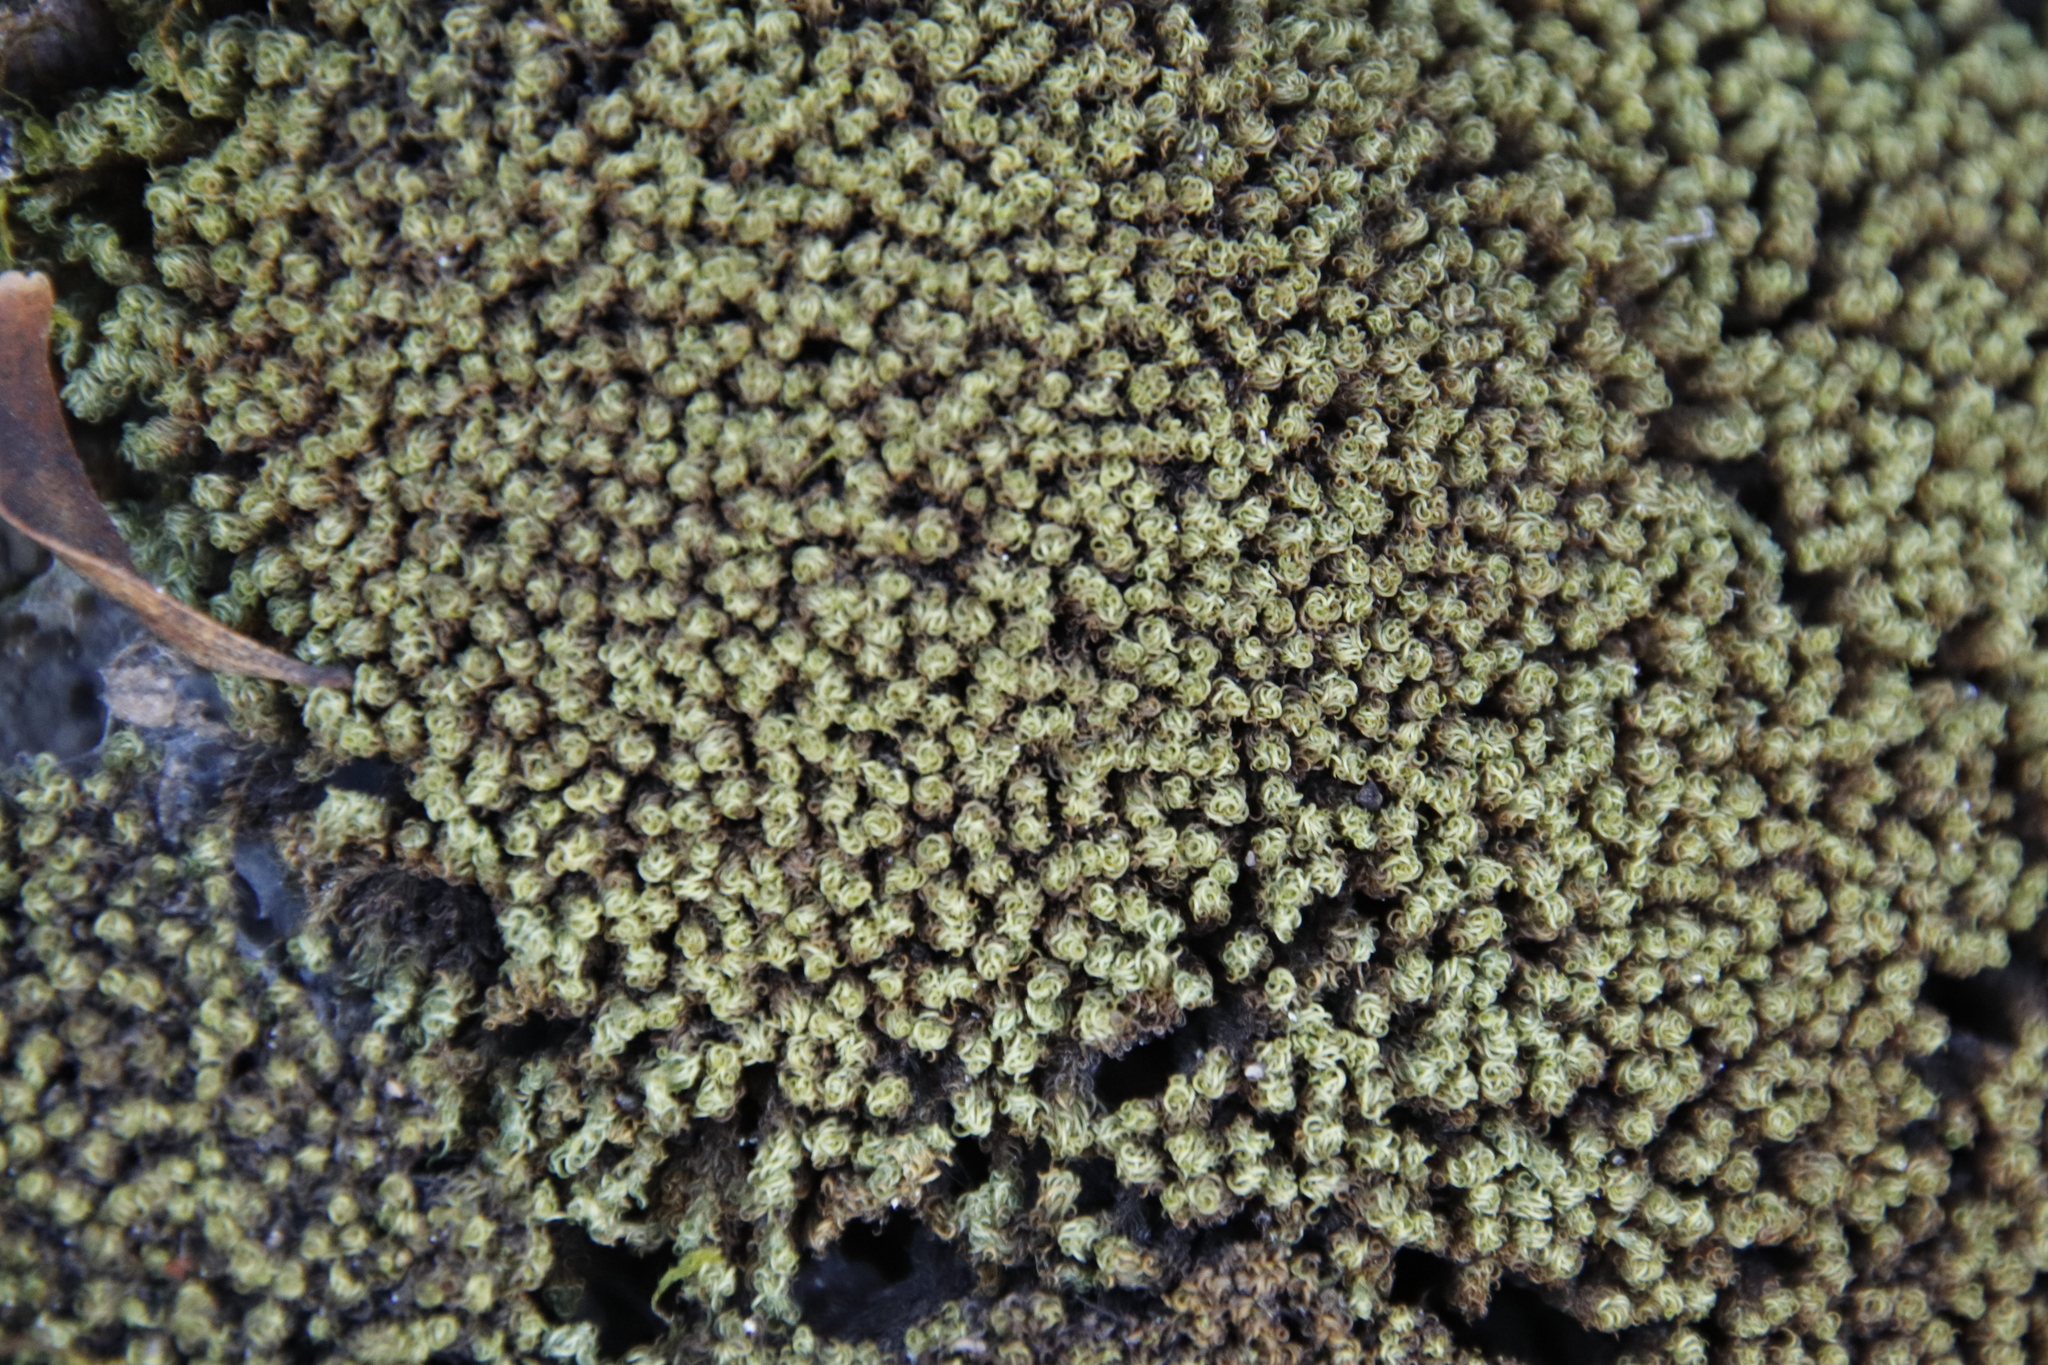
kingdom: Plantae
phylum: Bryophyta
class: Bryopsida
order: Pottiales
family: Pottiaceae
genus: Tortella
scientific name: Tortella xanthocarpa
